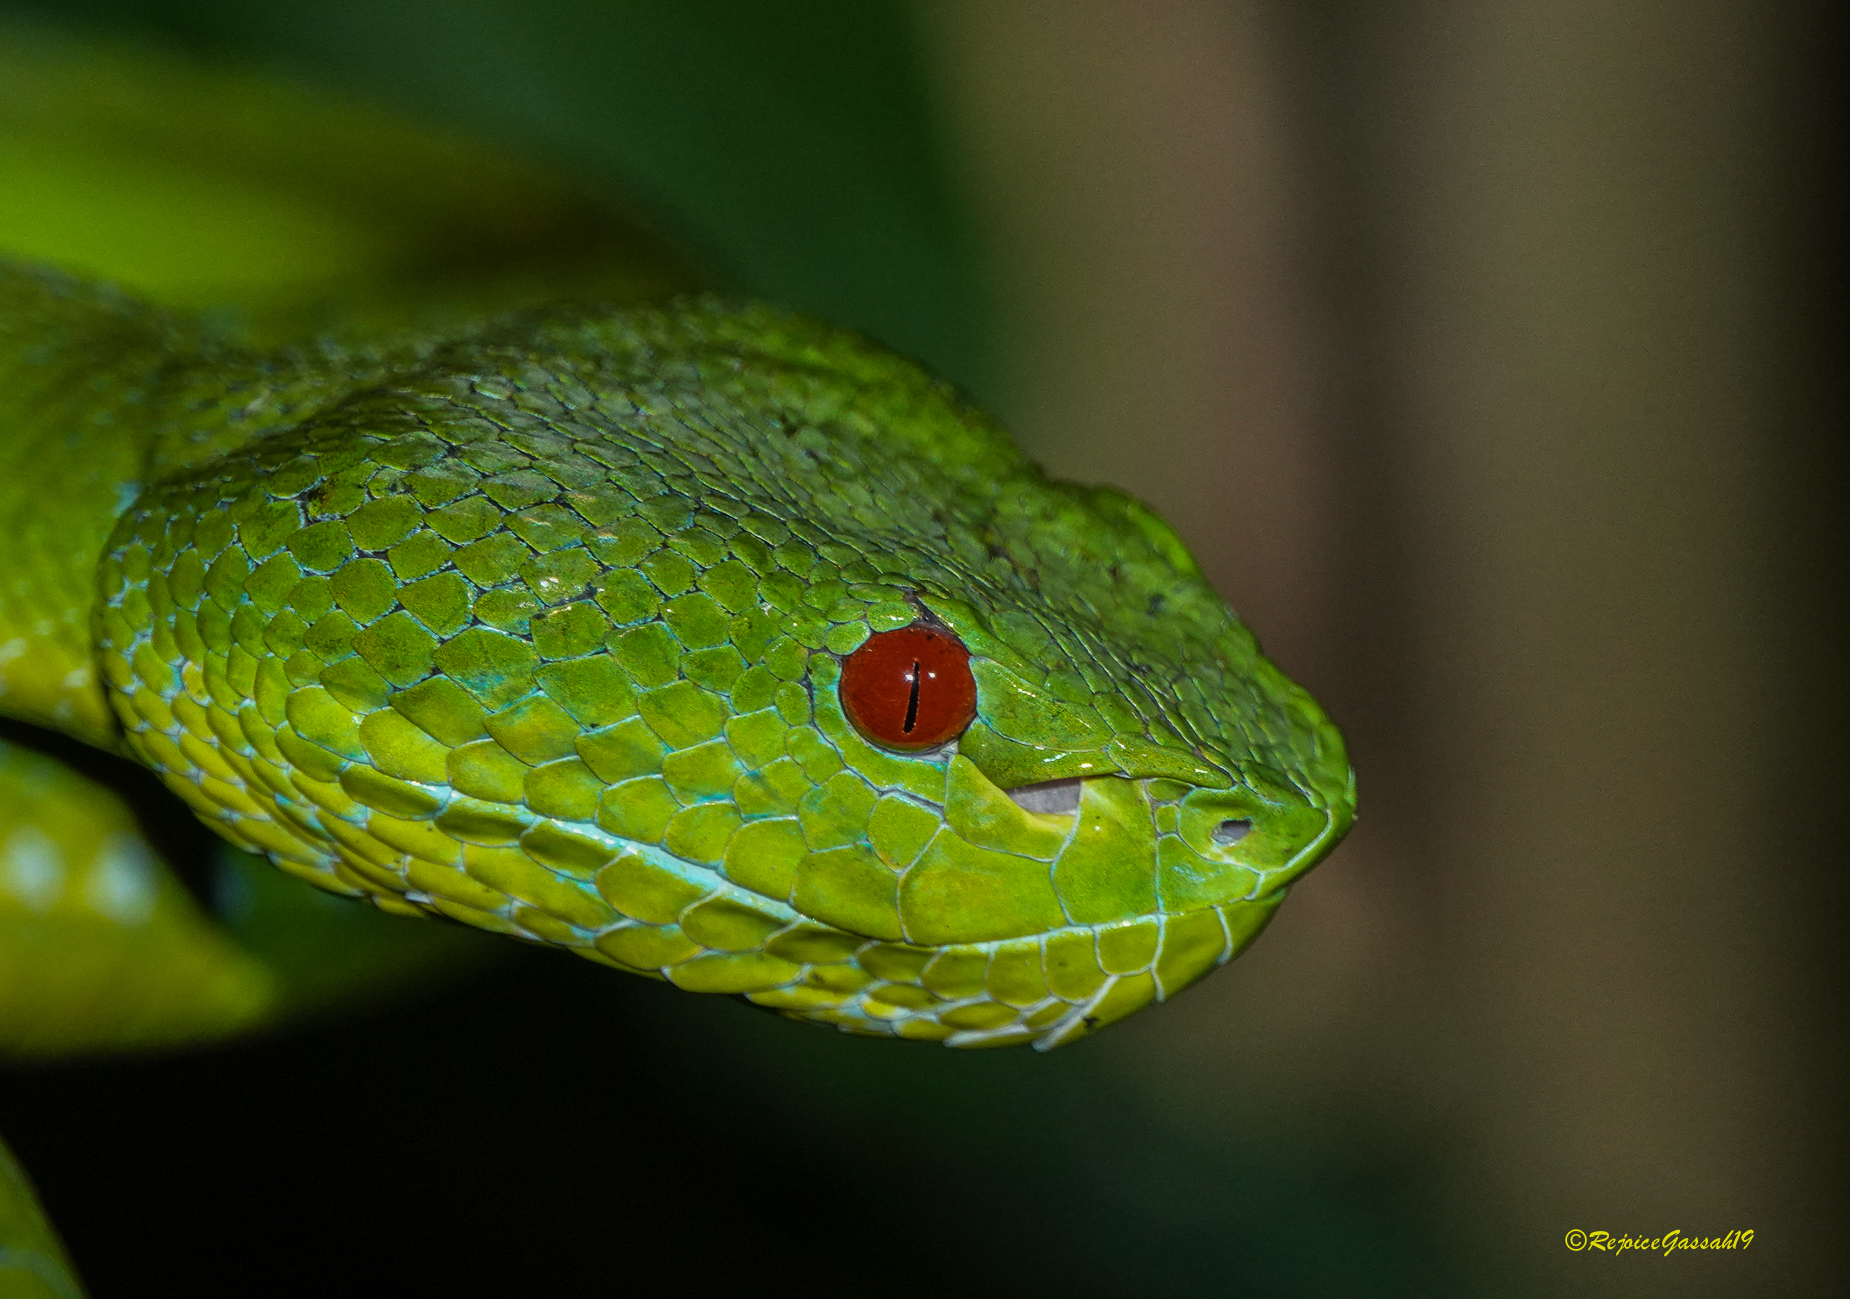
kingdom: Animalia
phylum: Chordata
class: Squamata
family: Viperidae
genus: Trimeresurus
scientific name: Trimeresurus popeiorum
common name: Pope's bamboo pit viper
